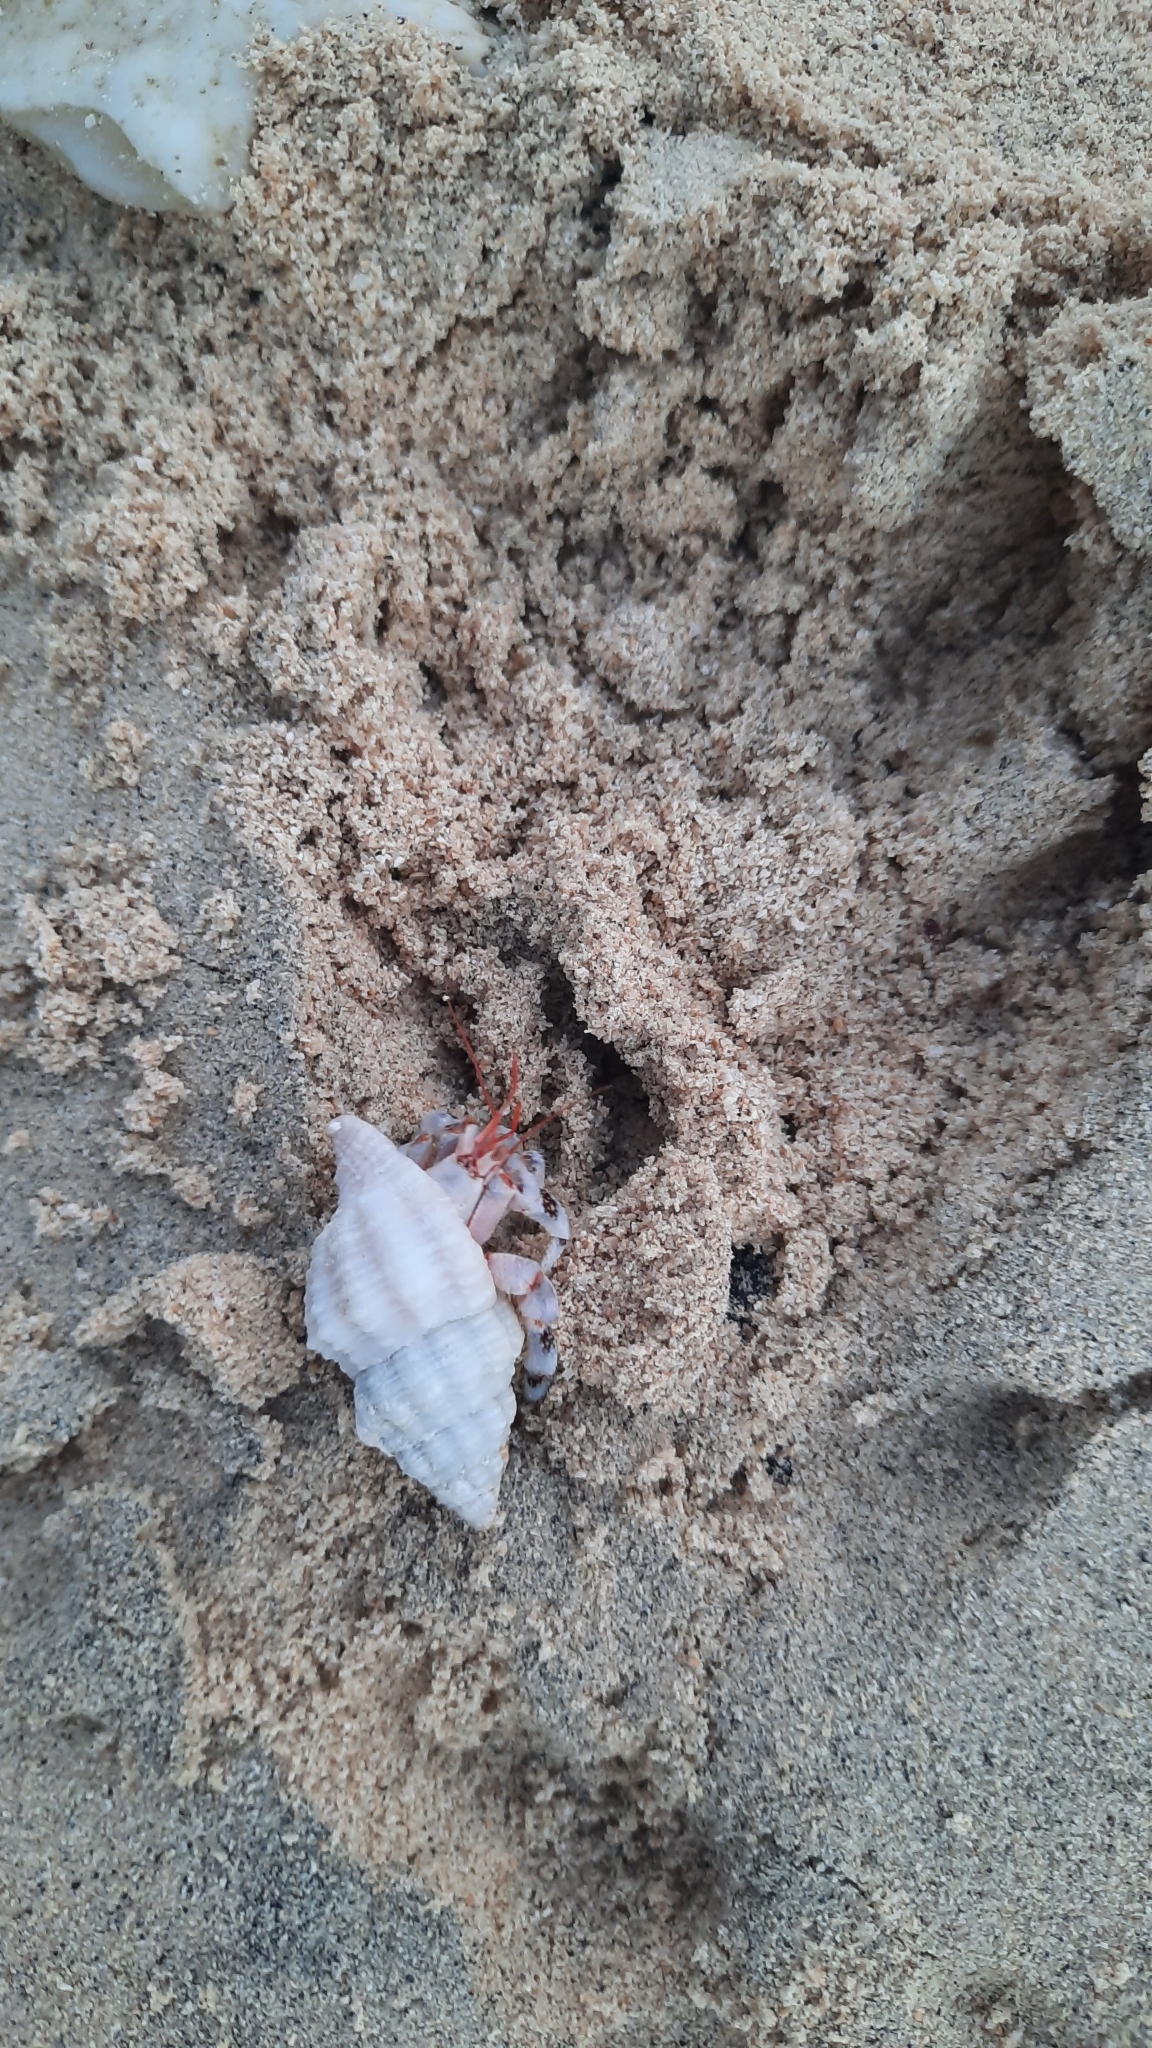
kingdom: Animalia
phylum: Arthropoda
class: Malacostraca
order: Decapoda
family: Coenobitidae
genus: Coenobita
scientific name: Coenobita carnescens
